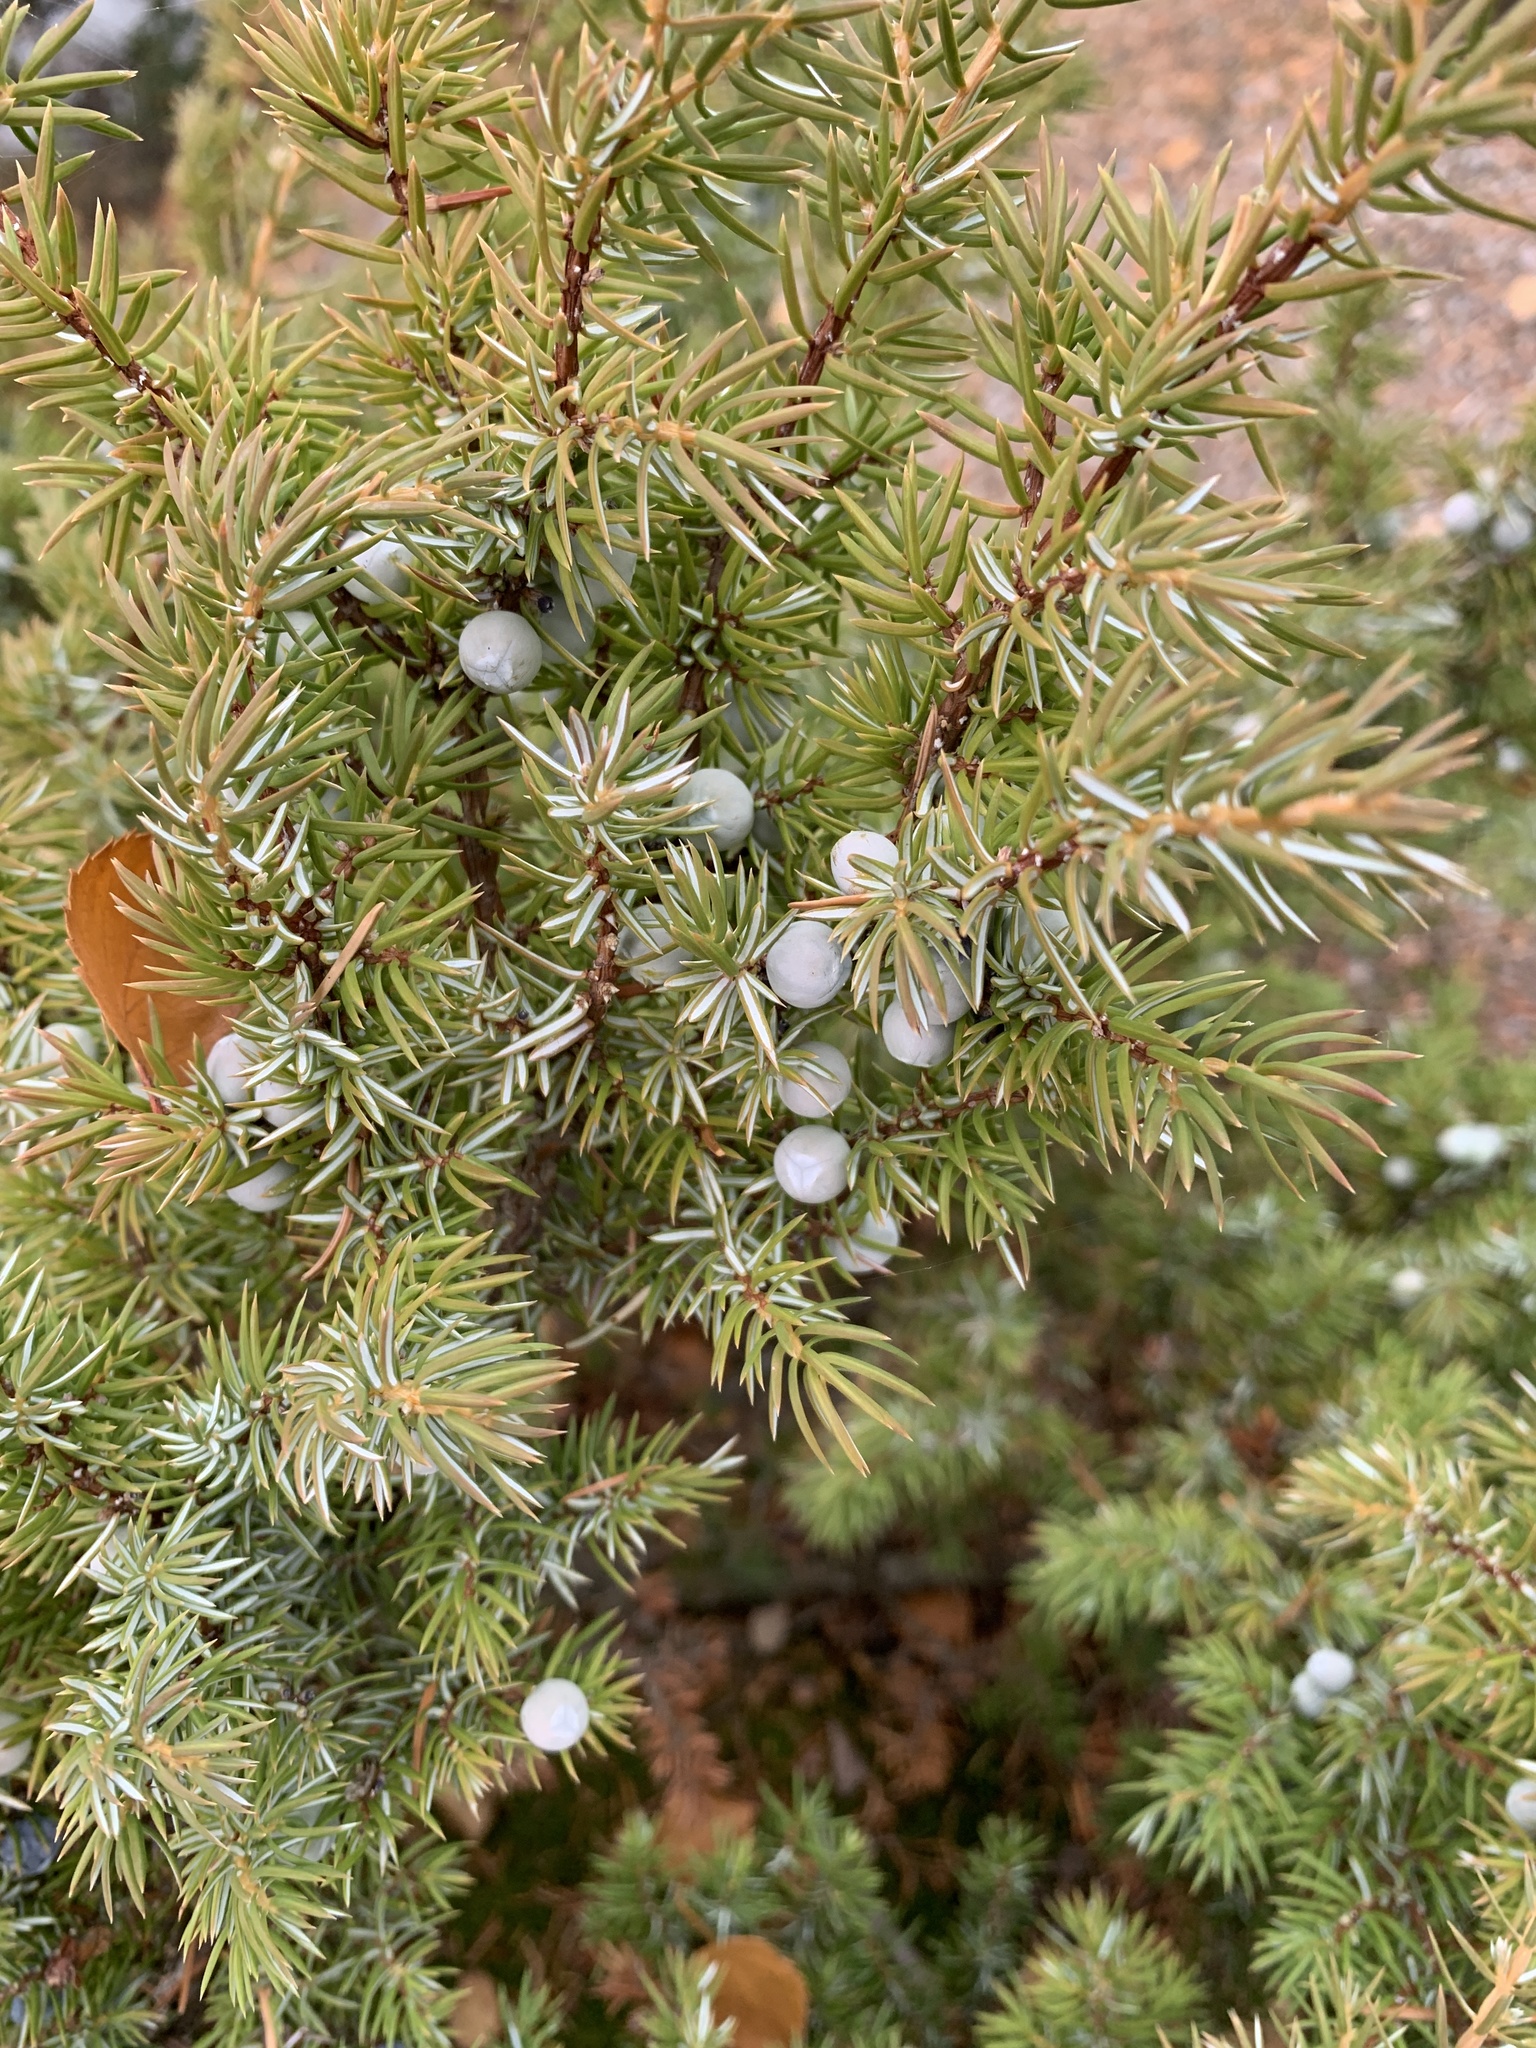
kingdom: Plantae
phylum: Tracheophyta
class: Pinopsida
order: Pinales
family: Cupressaceae
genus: Juniperus
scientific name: Juniperus communis
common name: Common juniper
